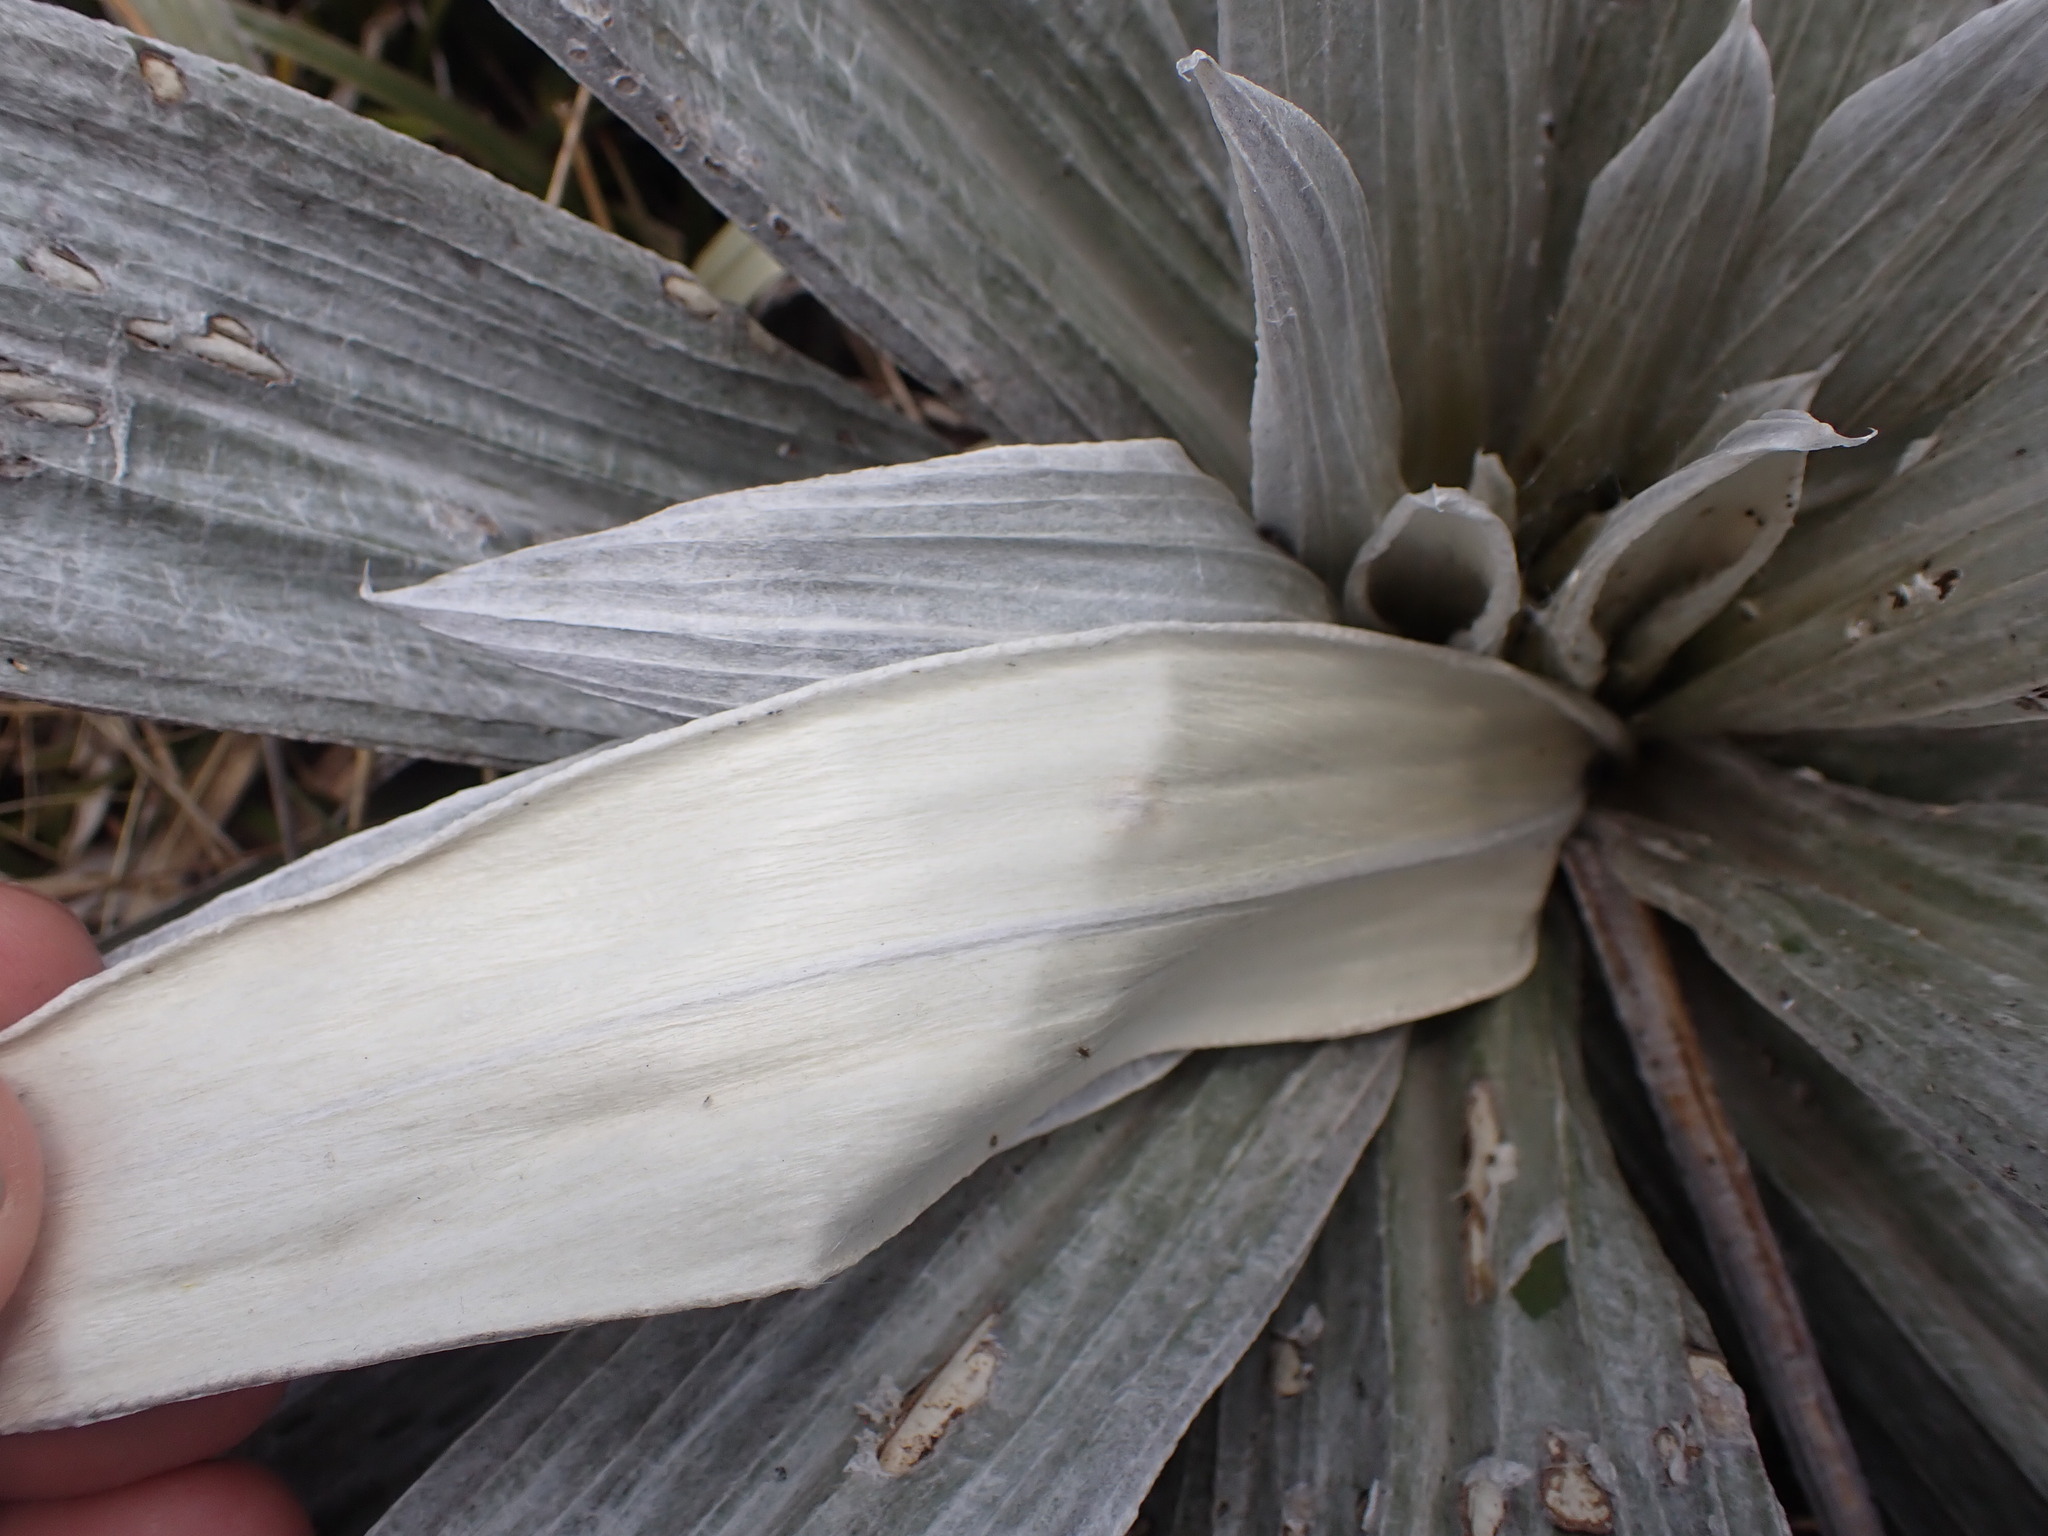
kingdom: Plantae
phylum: Tracheophyta
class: Magnoliopsida
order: Asterales
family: Asteraceae
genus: Celmisia
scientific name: Celmisia semicordata
